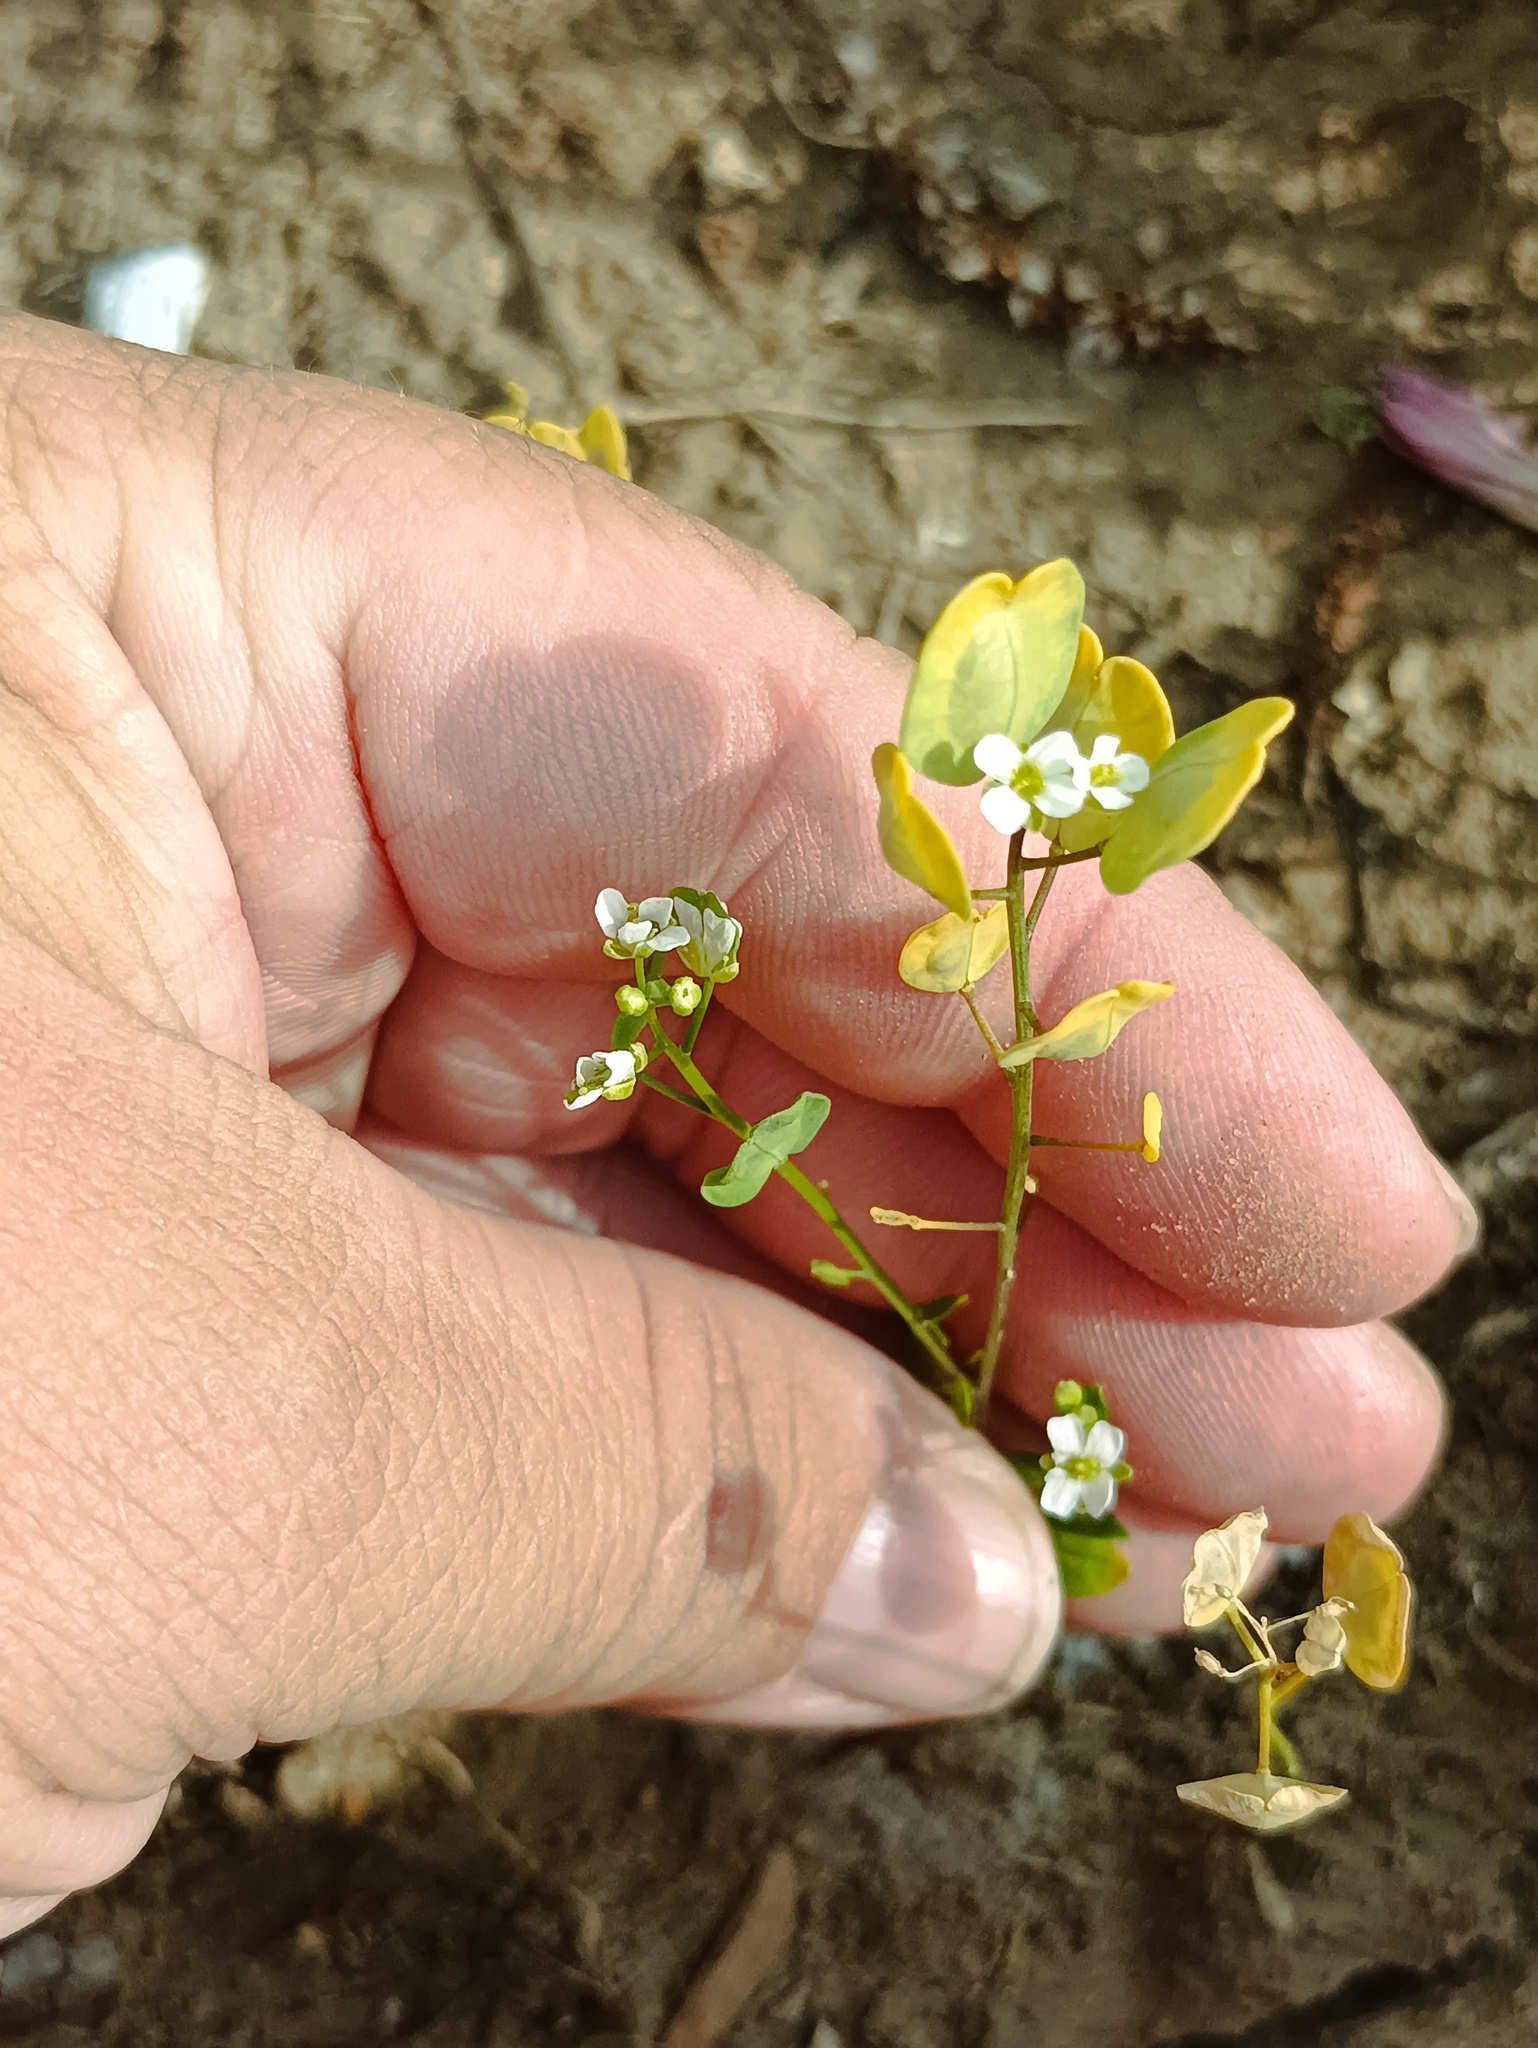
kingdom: Plantae
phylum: Tracheophyta
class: Magnoliopsida
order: Brassicales
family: Brassicaceae
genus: Thlaspi
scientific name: Thlaspi arvense
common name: Field pennycress
